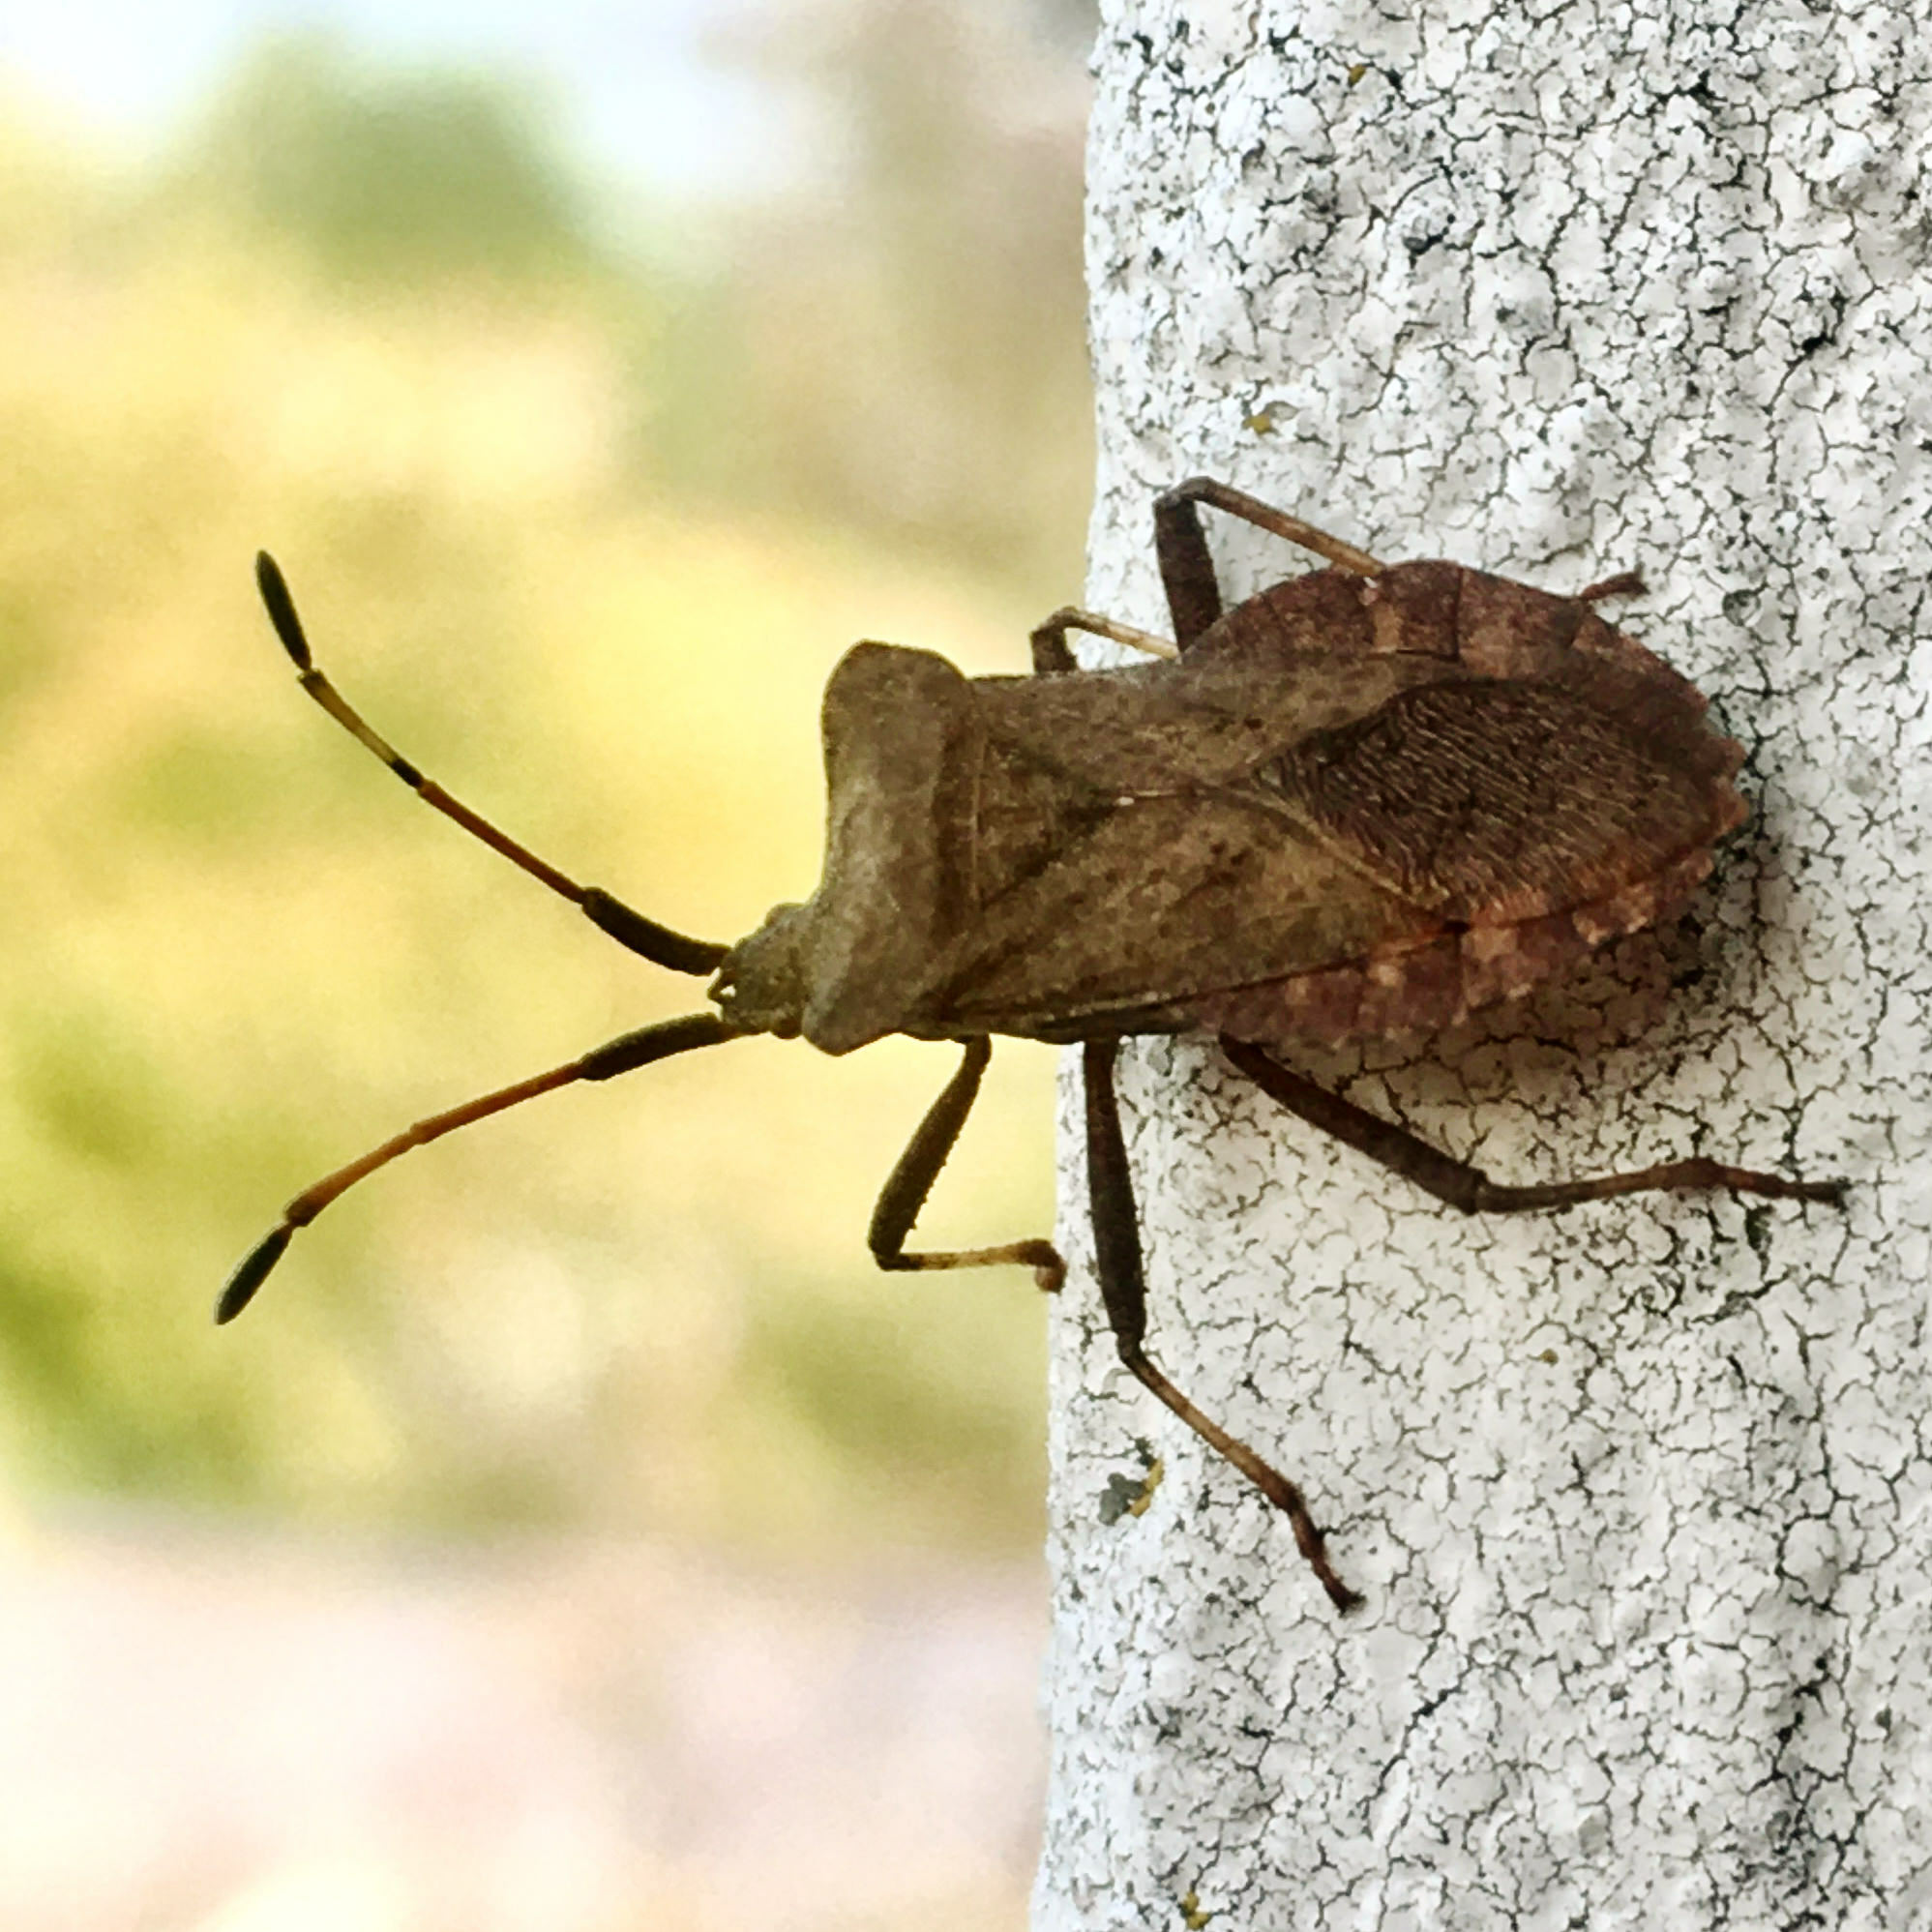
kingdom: Animalia
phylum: Arthropoda
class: Insecta
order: Hemiptera
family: Coreidae
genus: Coreus
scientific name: Coreus marginatus
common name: Dock bug
